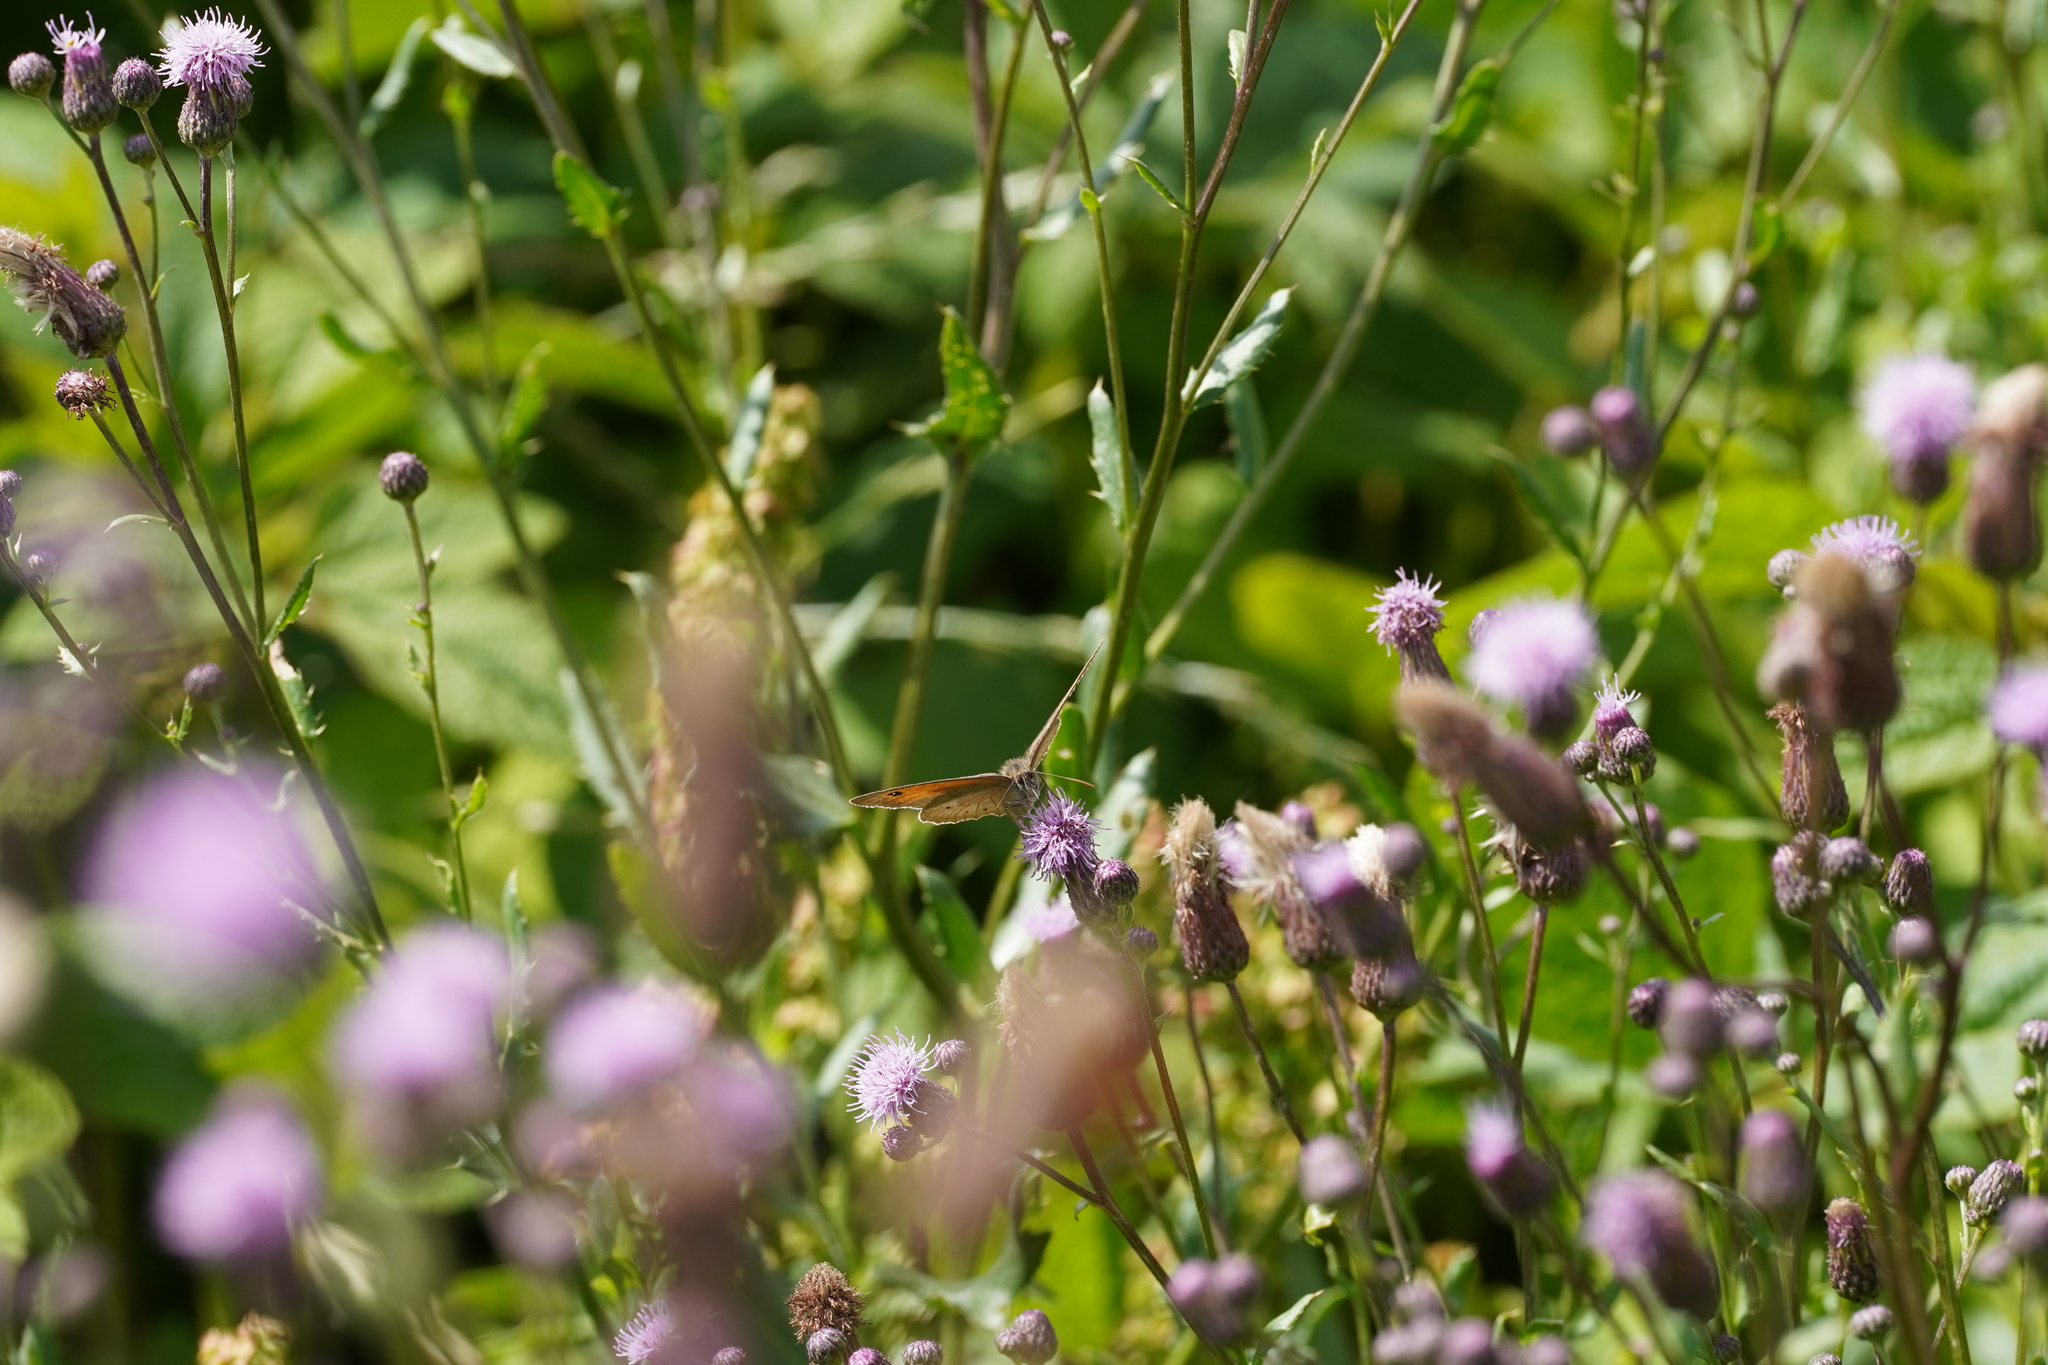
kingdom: Animalia
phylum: Arthropoda
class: Insecta
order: Lepidoptera
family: Nymphalidae
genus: Maniola
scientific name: Maniola jurtina
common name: Meadow brown
